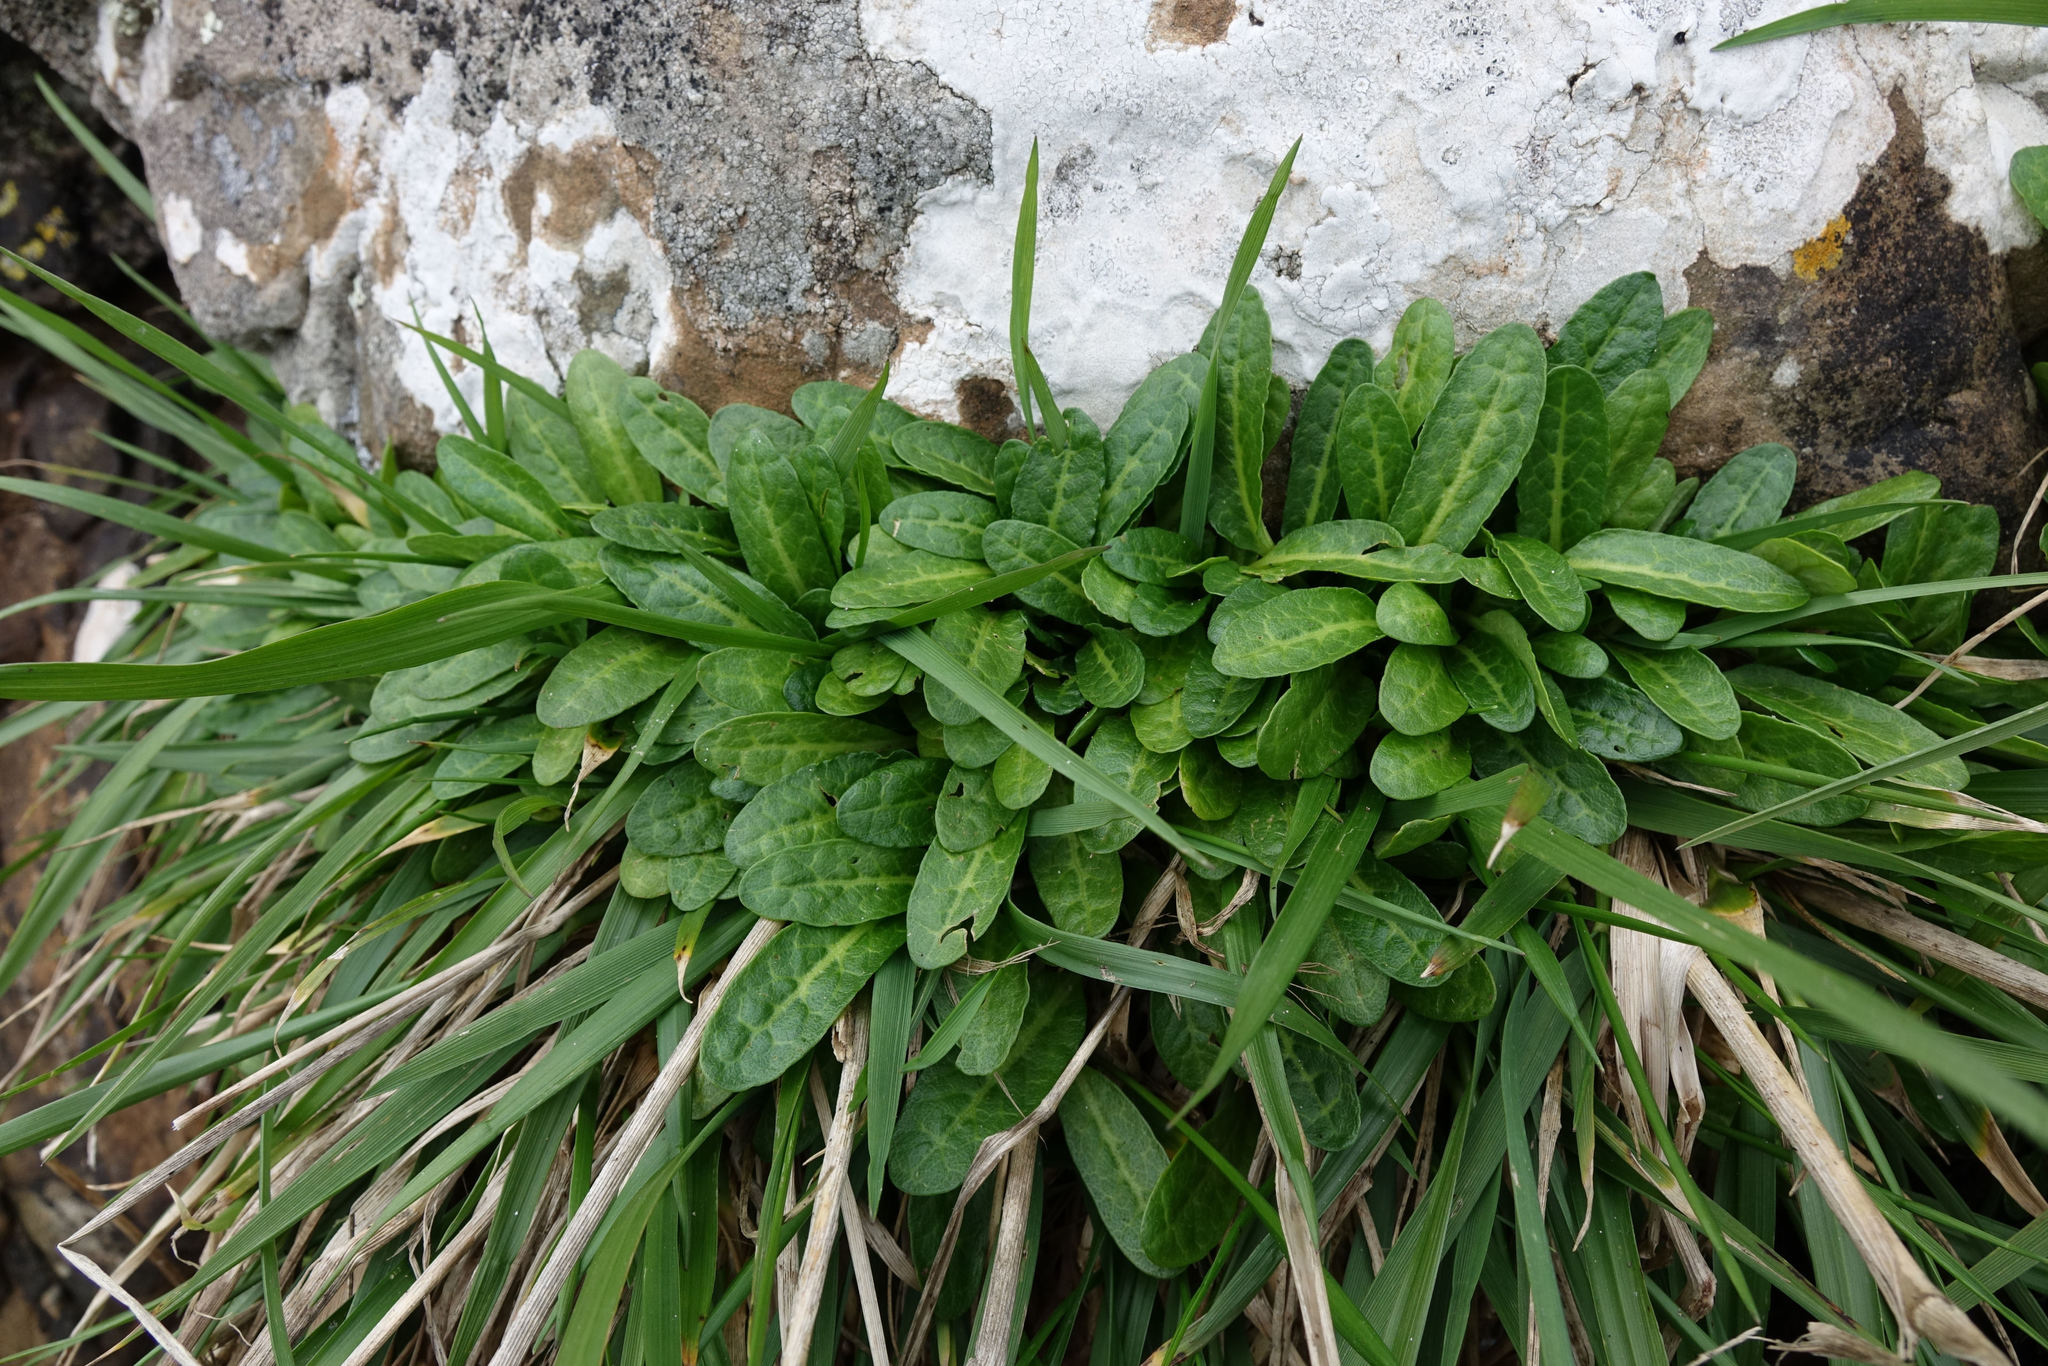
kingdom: Plantae
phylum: Tracheophyta
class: Magnoliopsida
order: Caryophyllales
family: Polygonaceae
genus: Rumex
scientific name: Rumex neglectus
